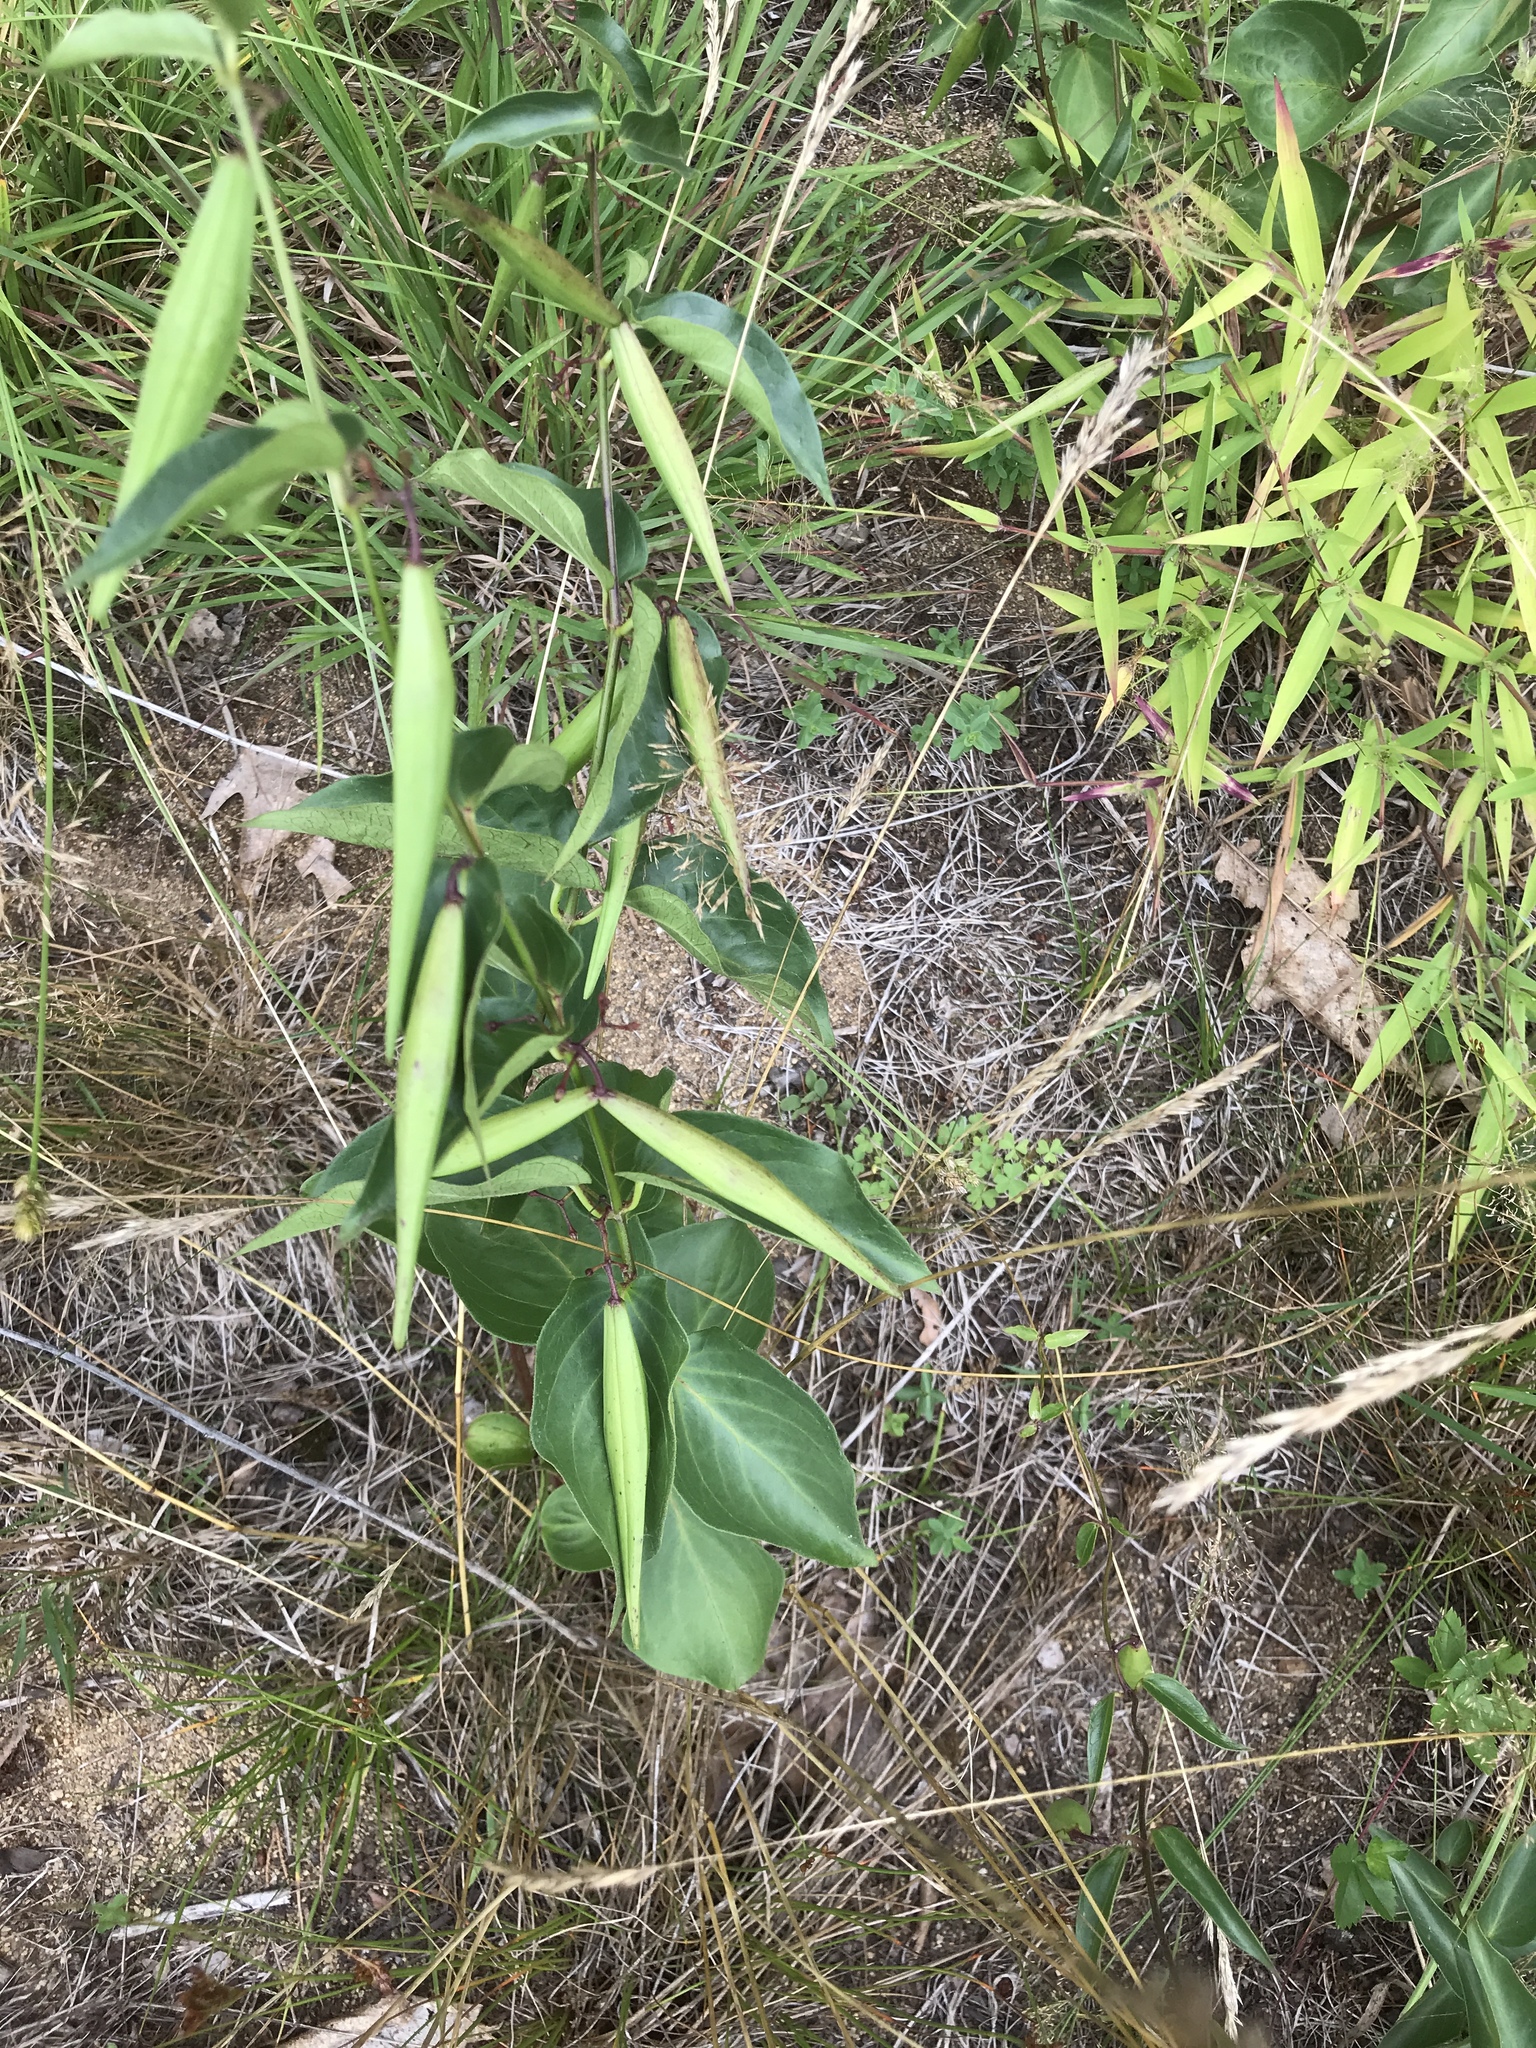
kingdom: Plantae
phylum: Tracheophyta
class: Magnoliopsida
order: Gentianales
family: Apocynaceae
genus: Vincetoxicum
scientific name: Vincetoxicum
